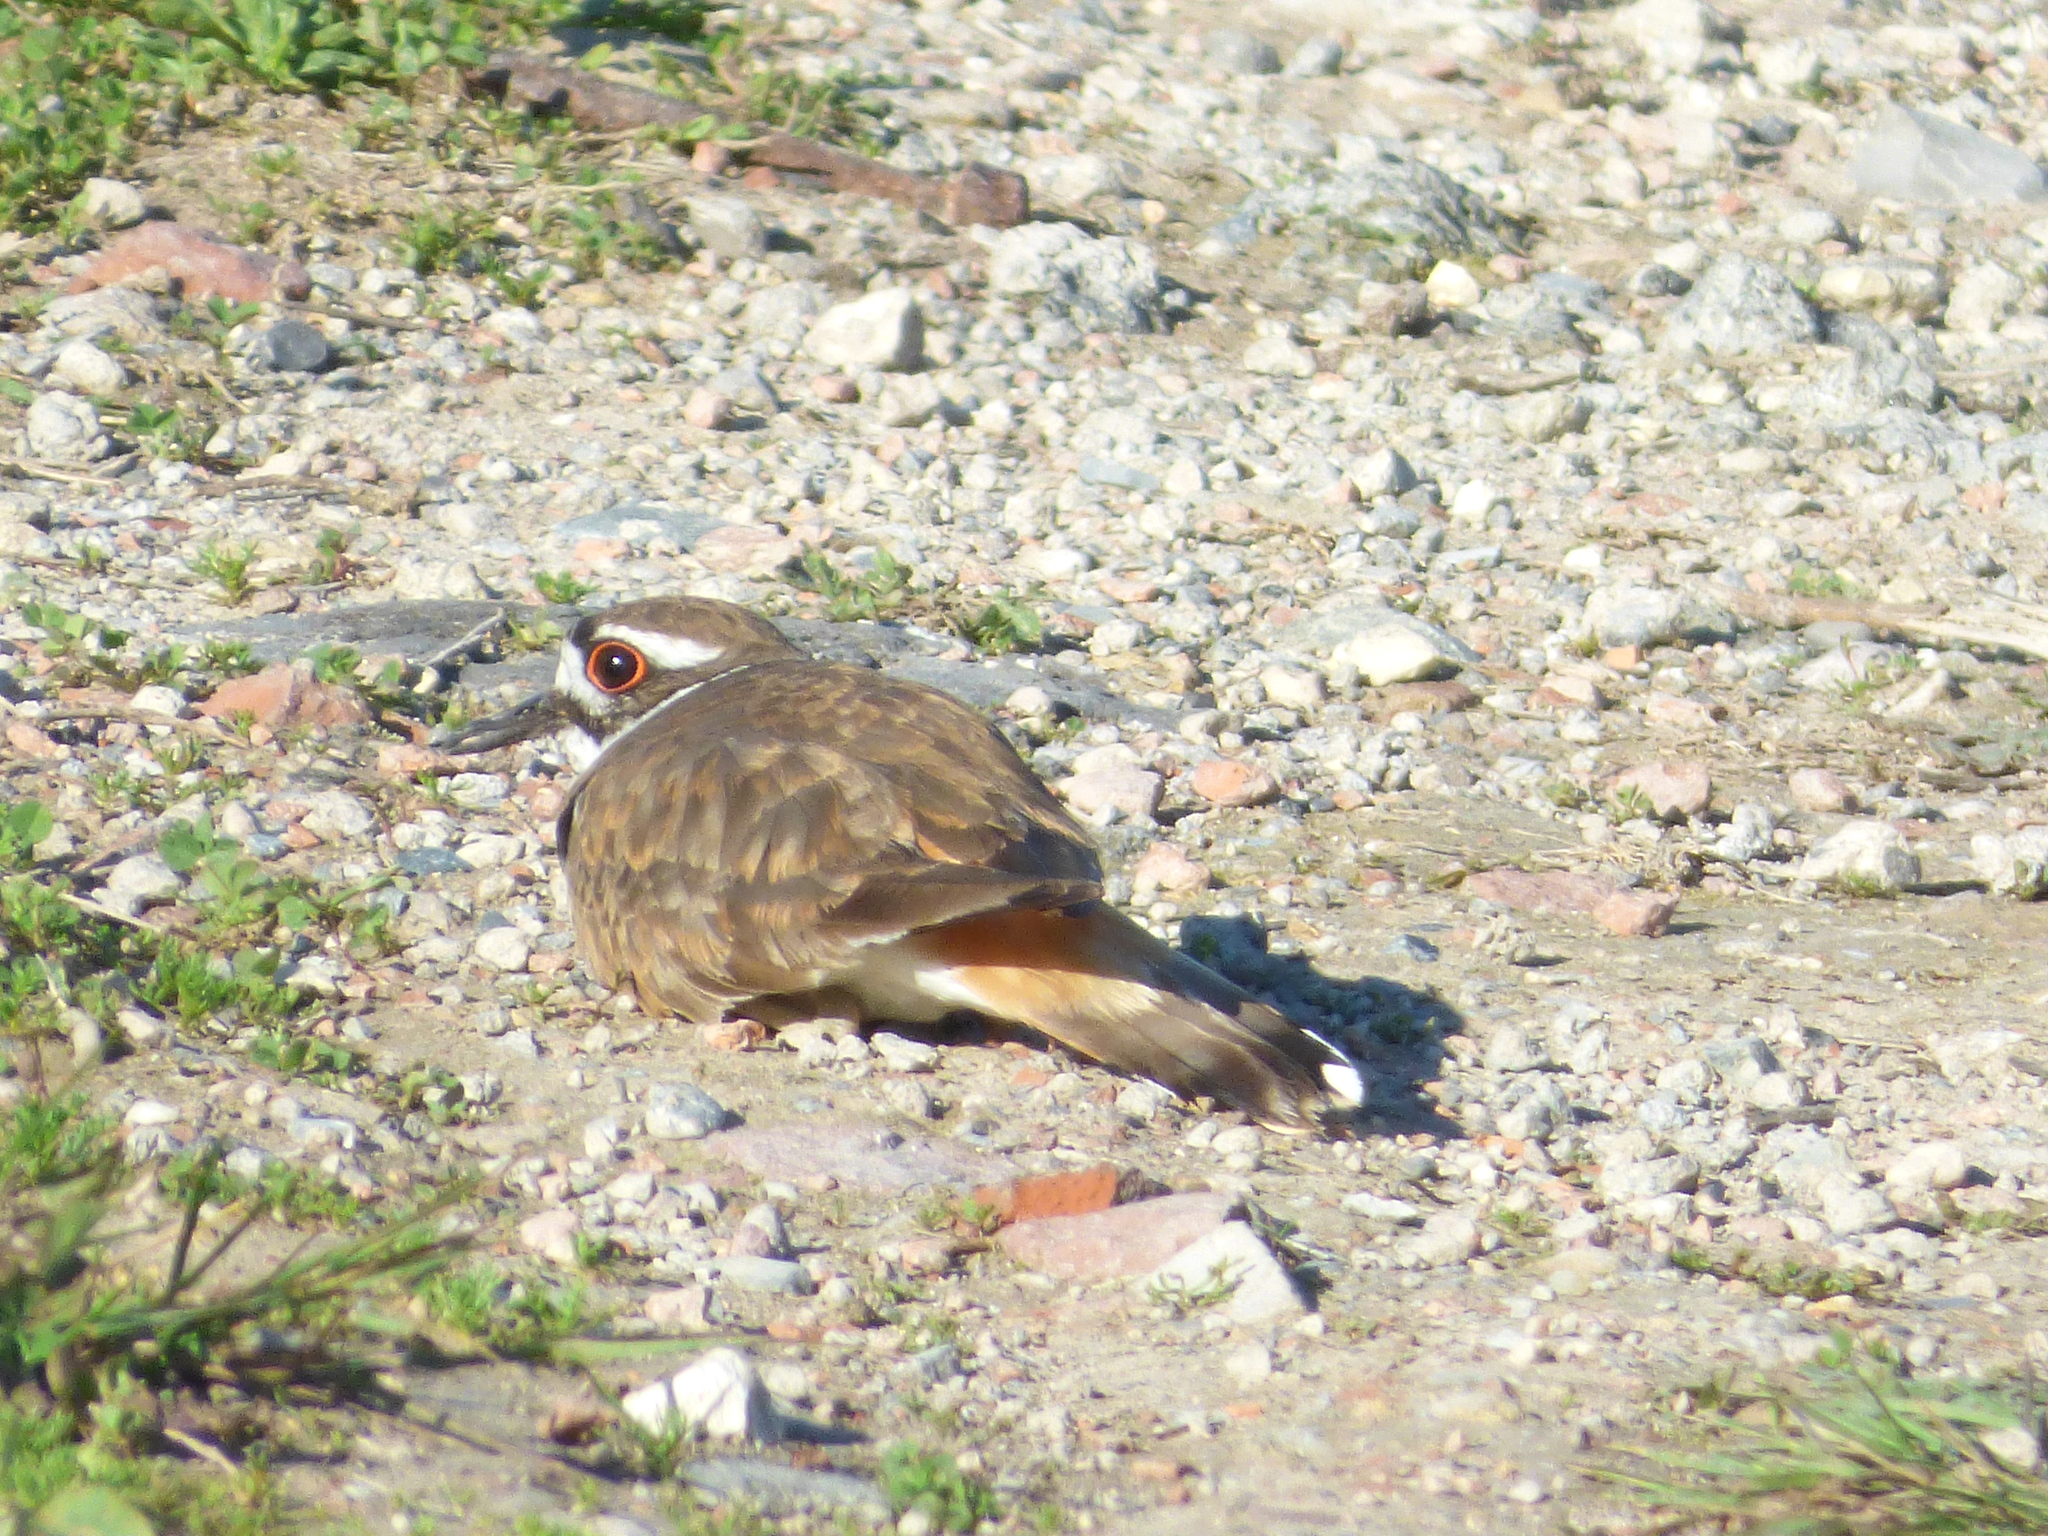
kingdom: Animalia
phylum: Chordata
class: Aves
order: Charadriiformes
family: Charadriidae
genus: Charadrius
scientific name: Charadrius vociferus
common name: Killdeer
